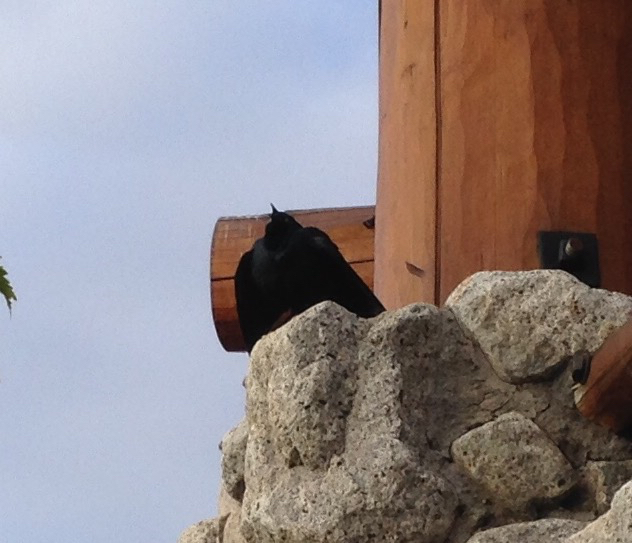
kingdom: Animalia
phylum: Chordata
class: Aves
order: Passeriformes
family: Icteridae
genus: Euphagus
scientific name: Euphagus cyanocephalus
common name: Brewer's blackbird
